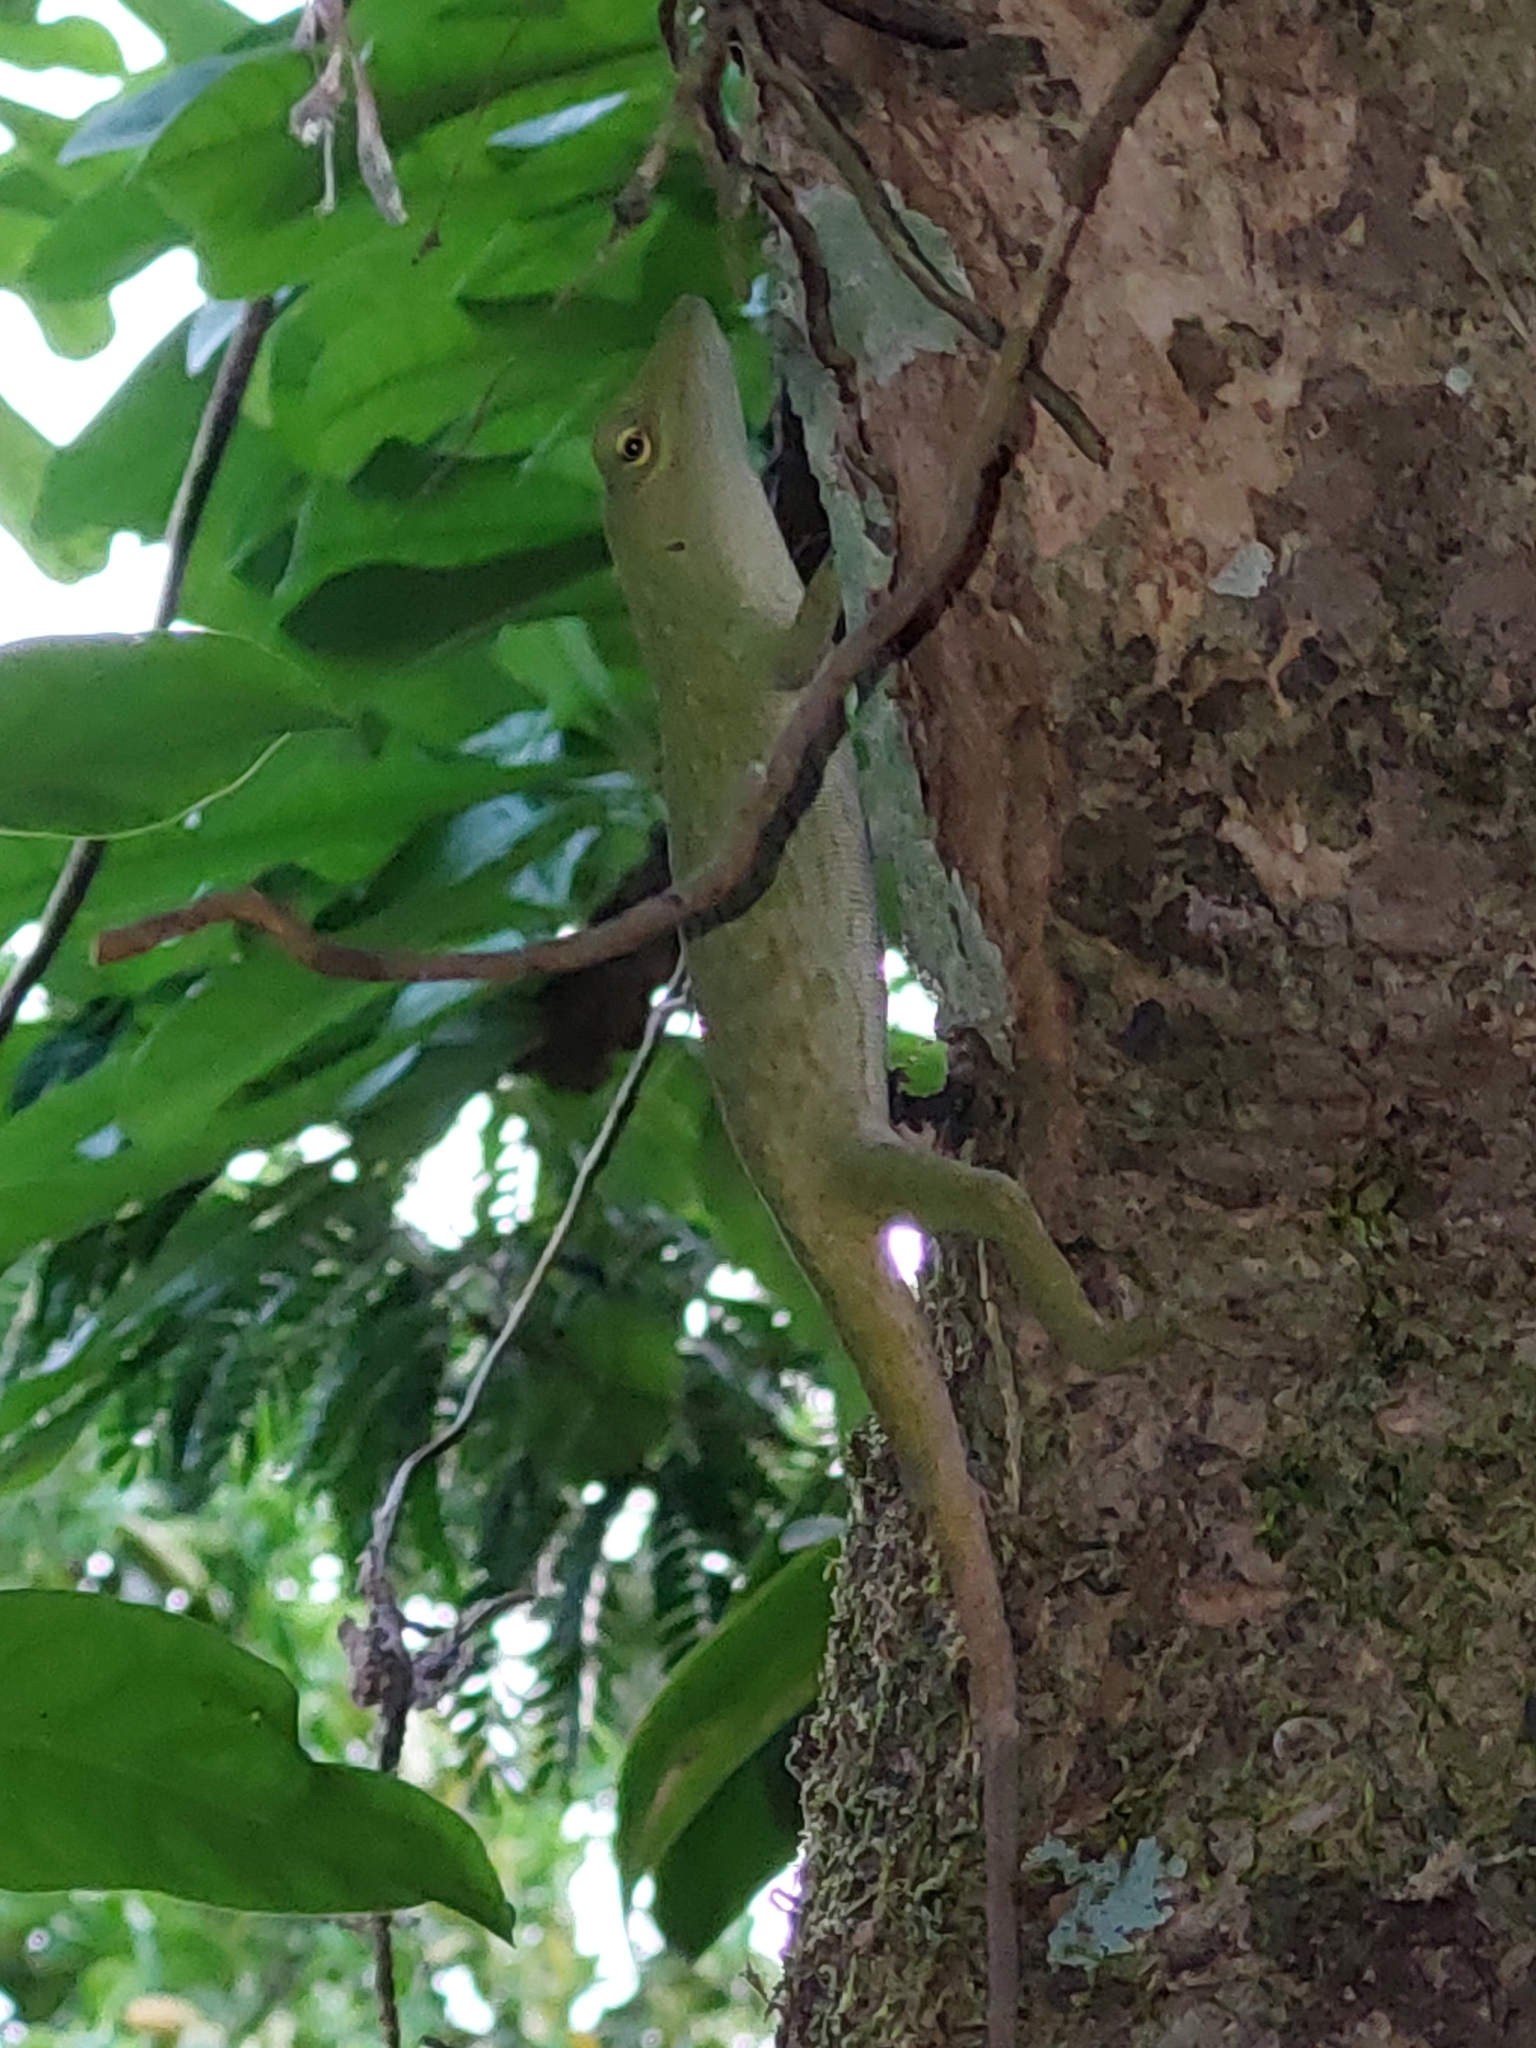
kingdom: Animalia
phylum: Chordata
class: Squamata
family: Dactyloidae
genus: Anolis
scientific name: Anolis biporcatus
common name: Giant green anole
